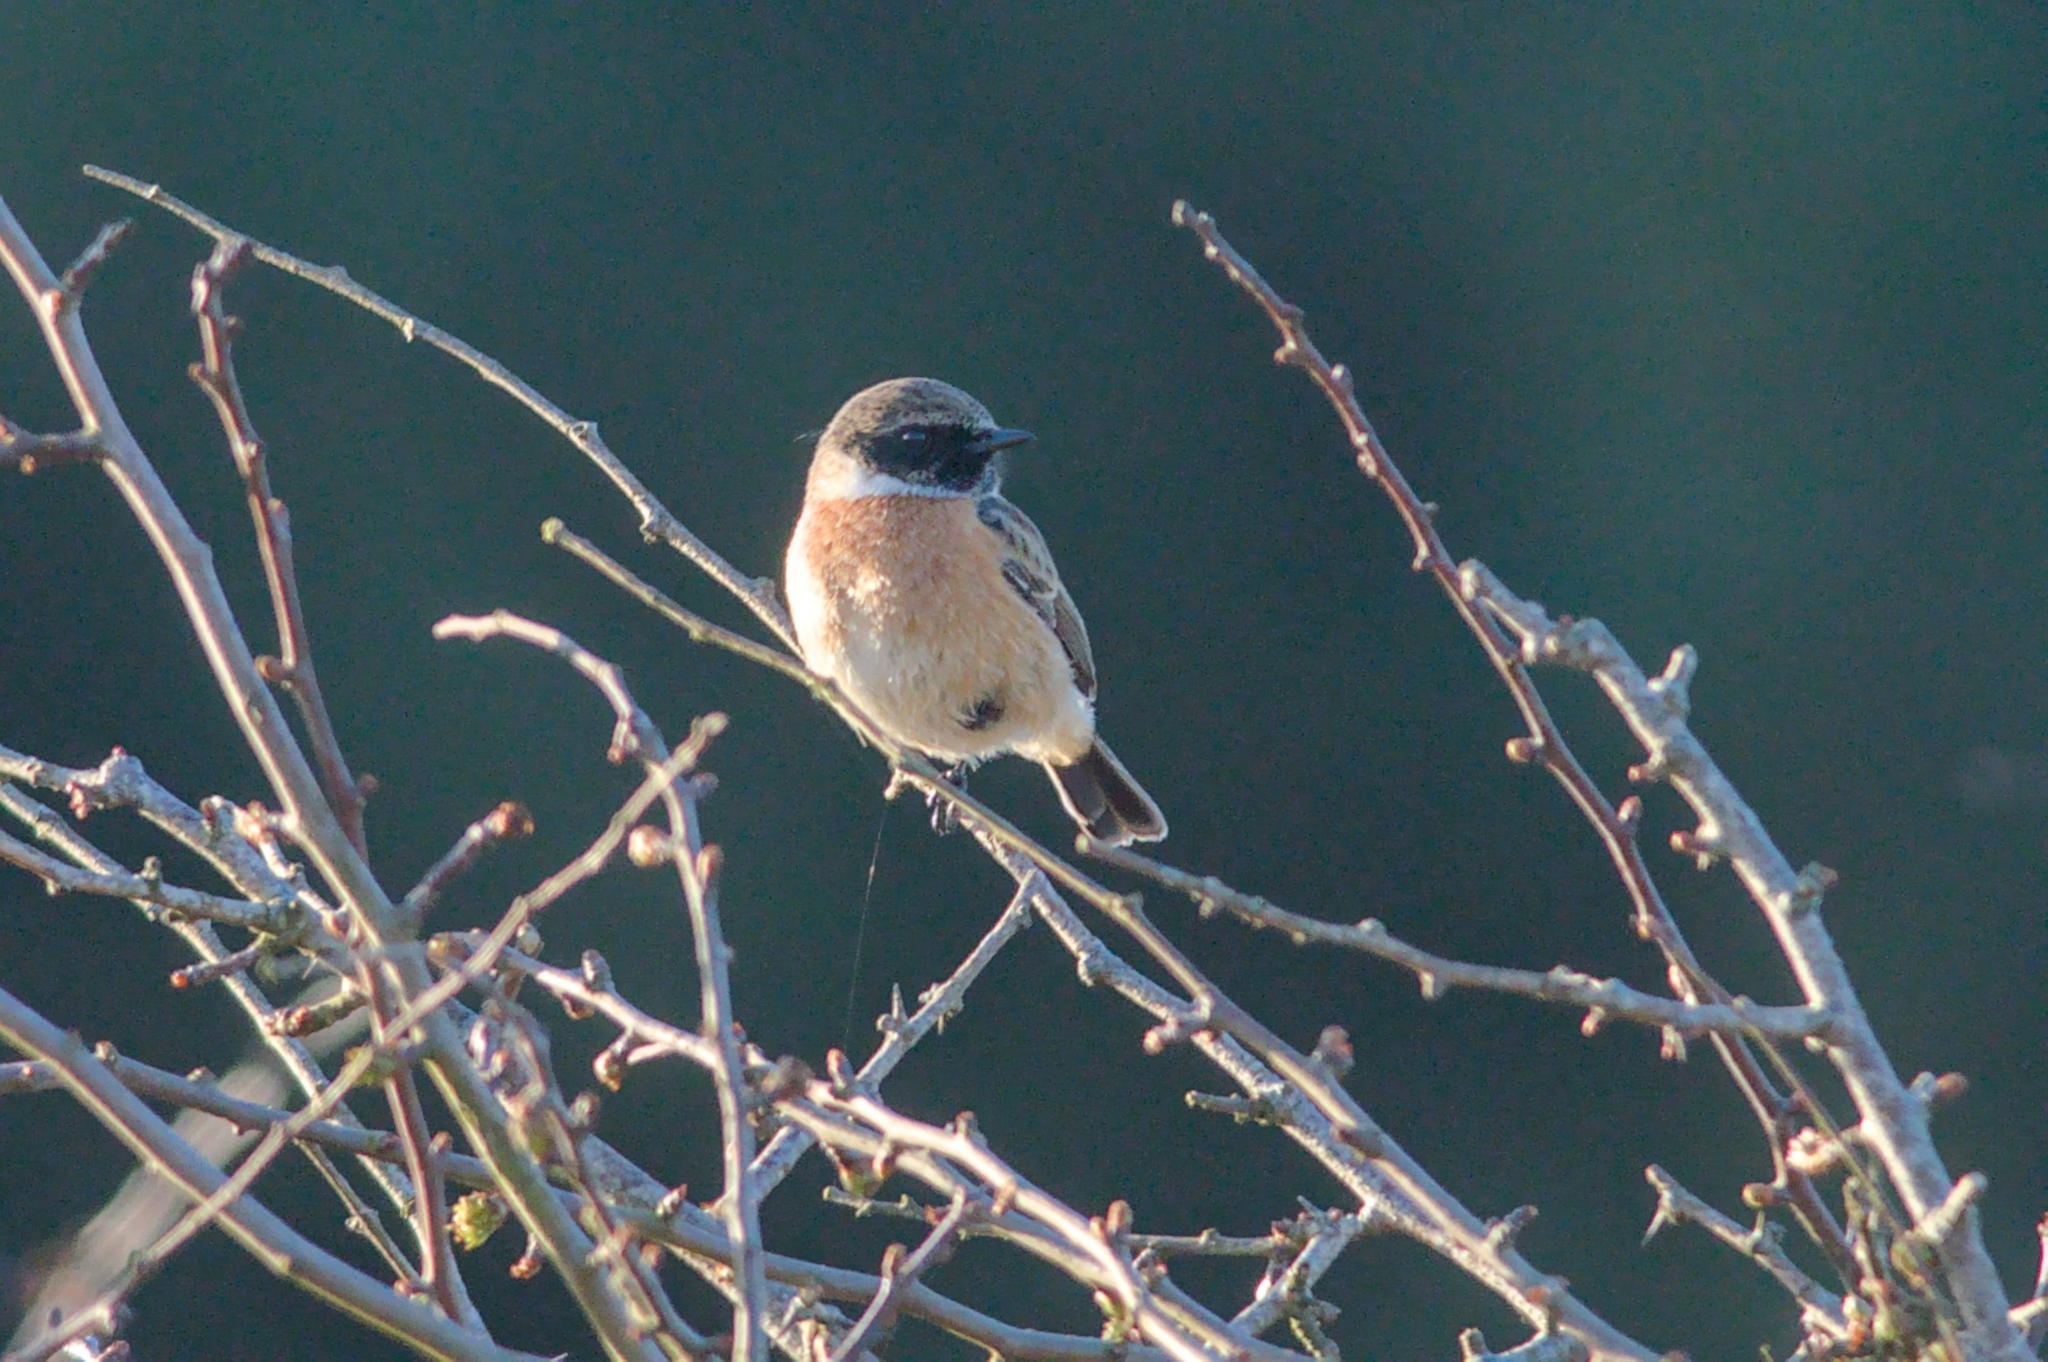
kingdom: Animalia
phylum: Chordata
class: Aves
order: Passeriformes
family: Muscicapidae
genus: Saxicola
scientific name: Saxicola rubicola
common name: European stonechat
